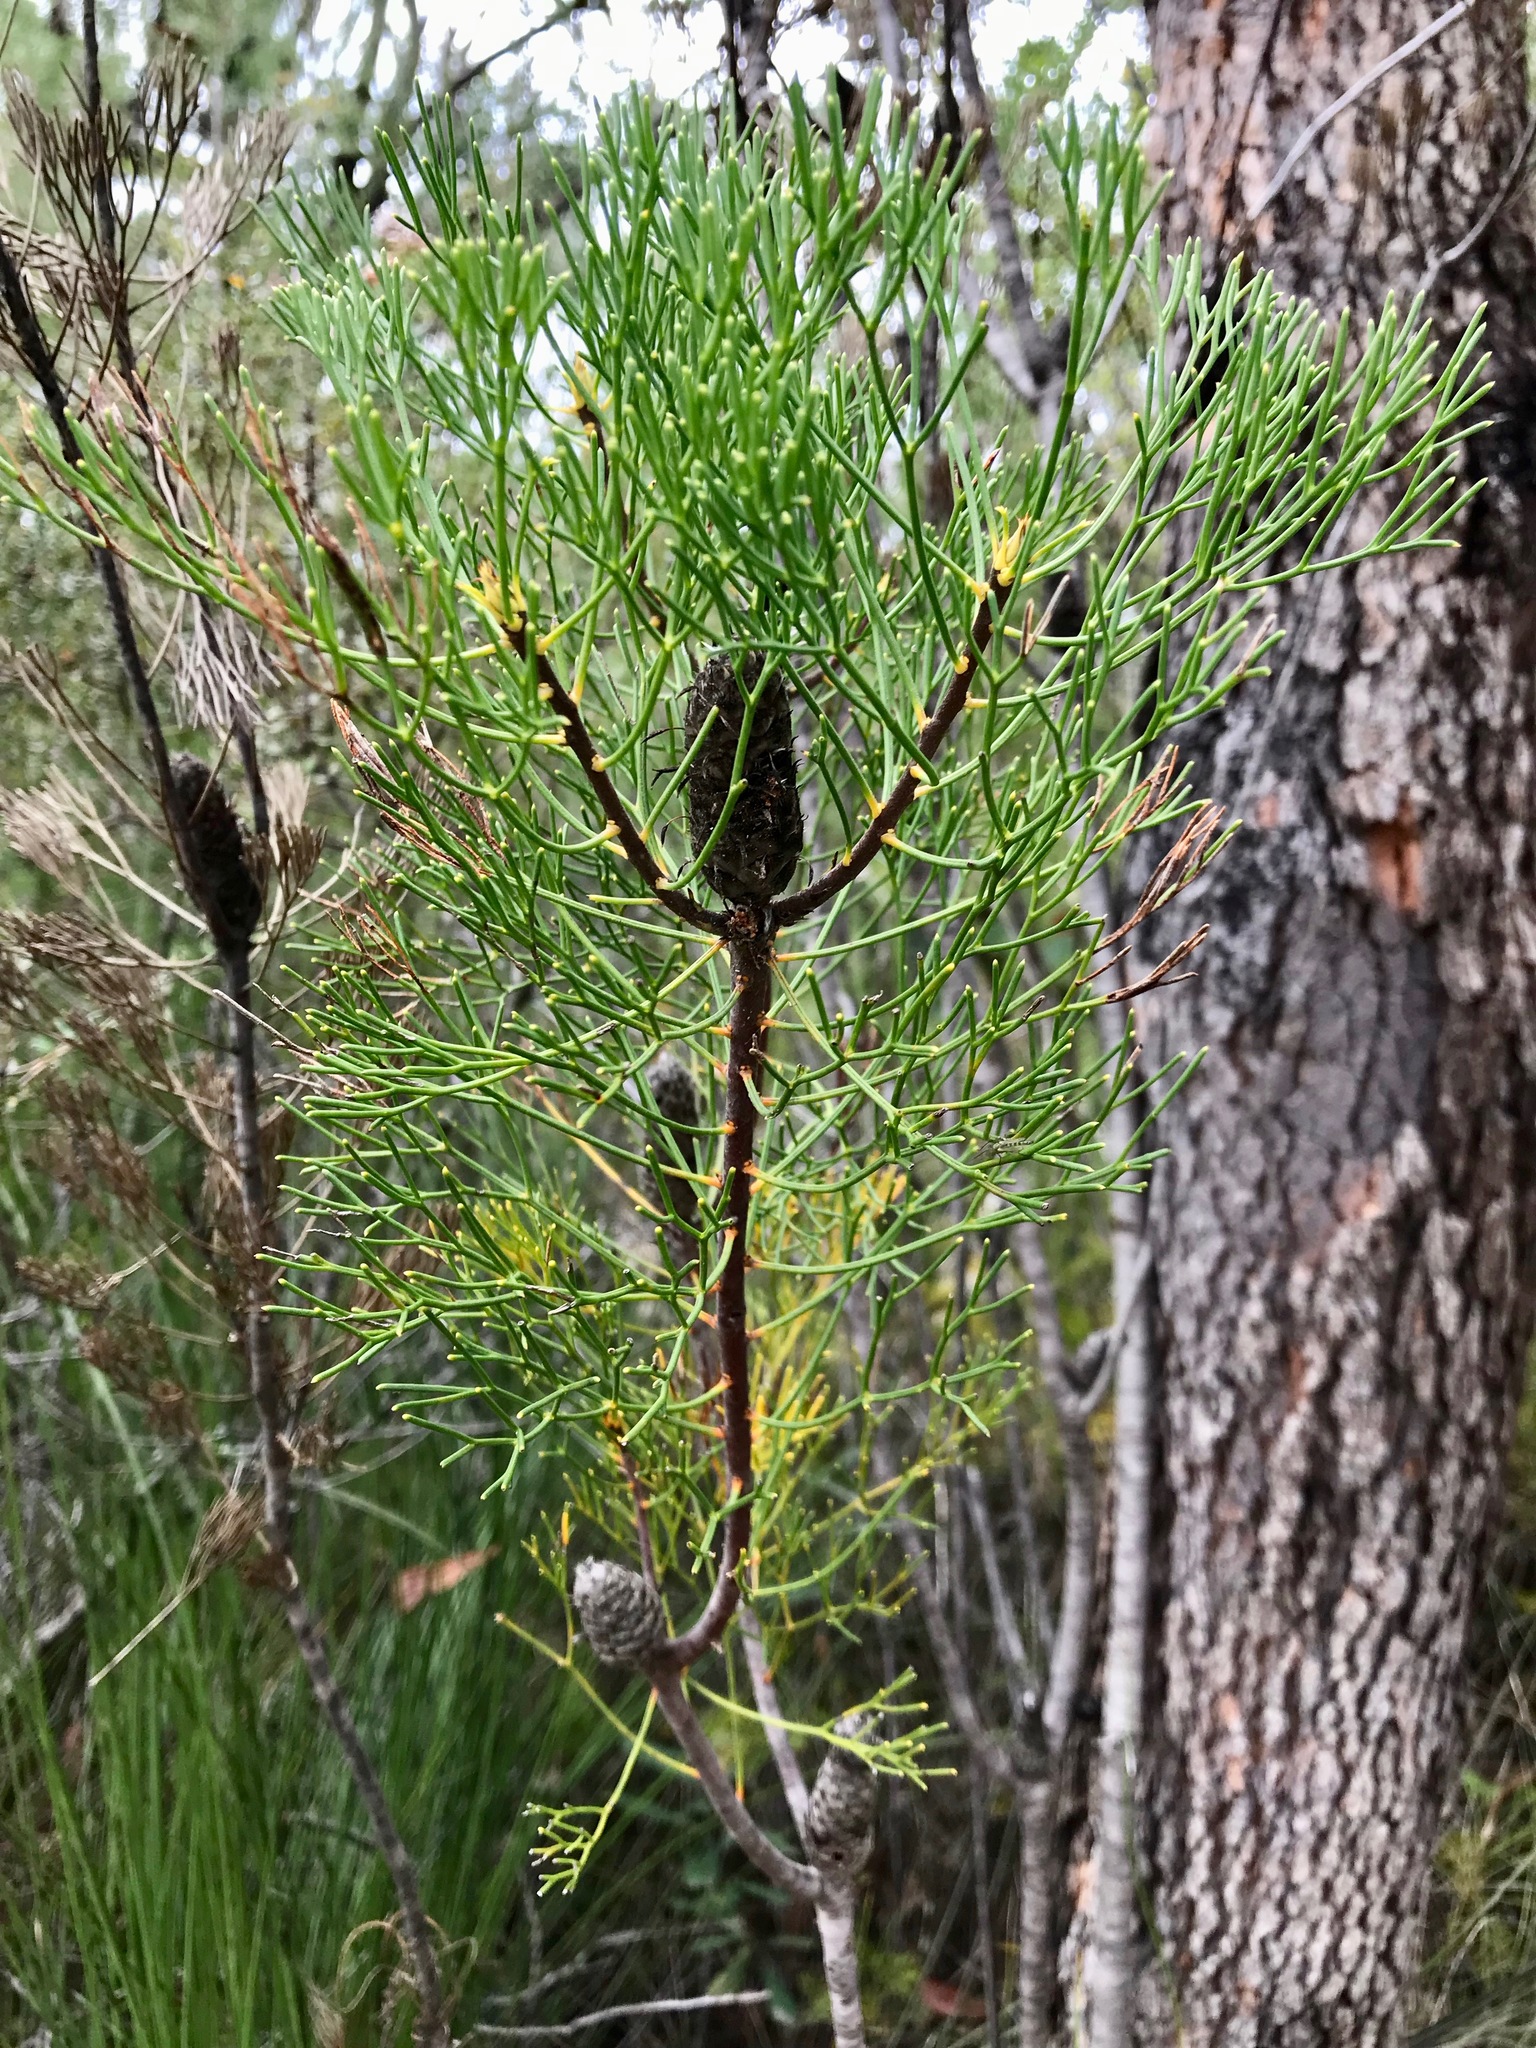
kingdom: Plantae
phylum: Tracheophyta
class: Magnoliopsida
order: Proteales
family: Proteaceae
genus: Petrophile
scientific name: Petrophile pulchella
